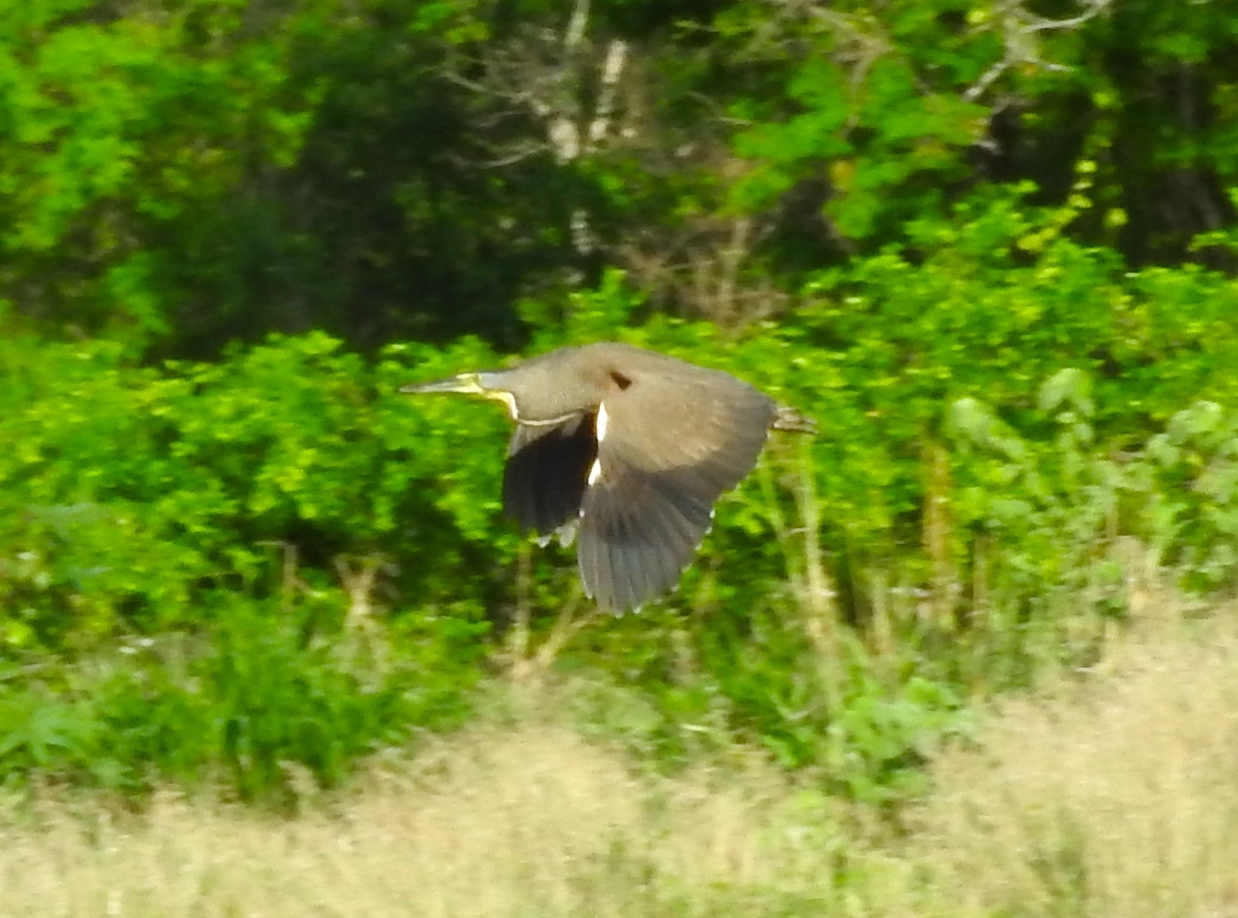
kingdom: Animalia
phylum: Chordata
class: Aves
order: Pelecaniformes
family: Ardeidae
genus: Tigrisoma
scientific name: Tigrisoma mexicanum
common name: Bare-throated tiger-heron
